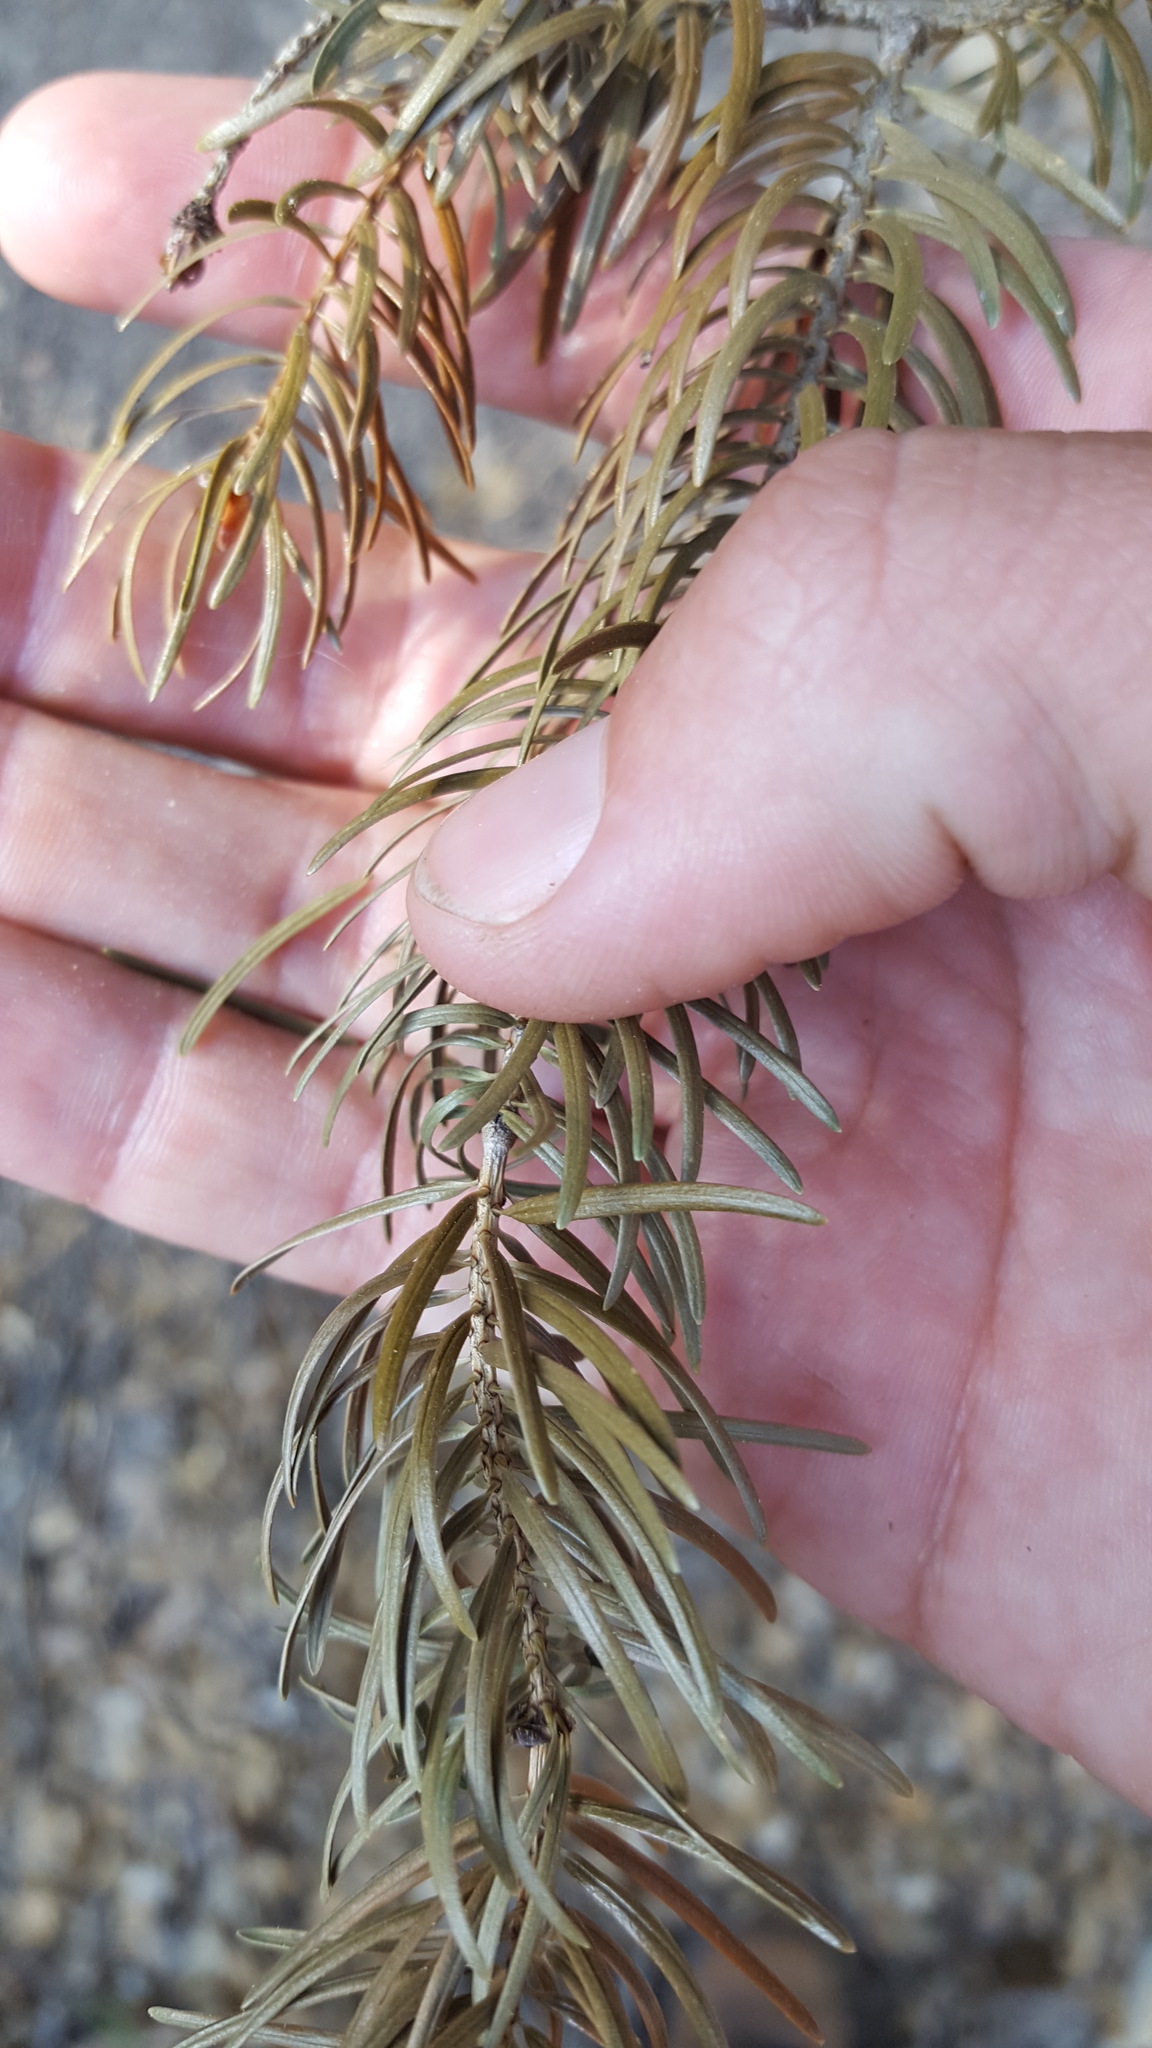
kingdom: Plantae
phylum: Tracheophyta
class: Pinopsida
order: Pinales
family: Pinaceae
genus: Pseudotsuga
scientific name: Pseudotsuga macrocarpa
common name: Big-cone douglas-fir
